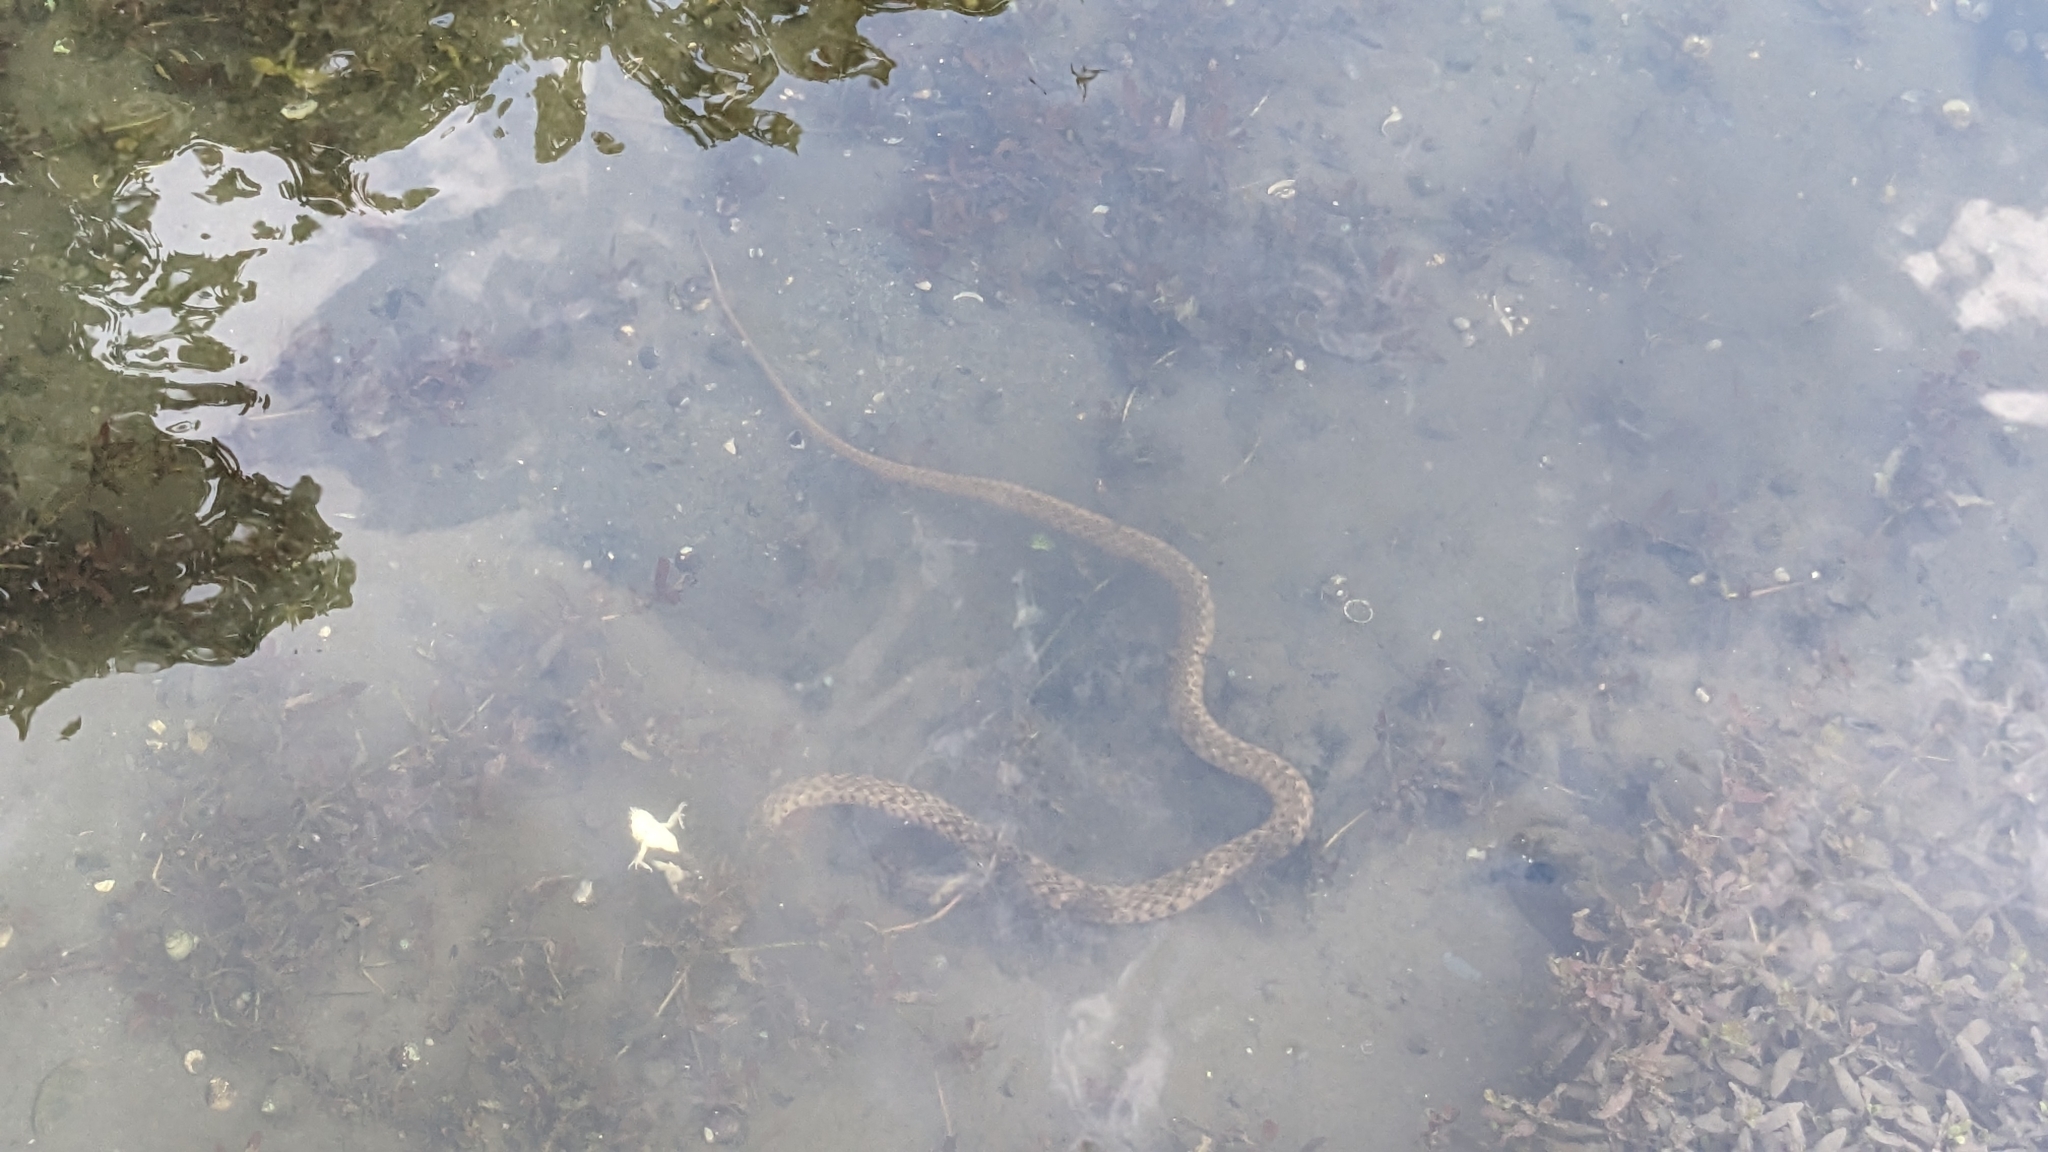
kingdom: Animalia
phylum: Chordata
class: Squamata
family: Colubridae
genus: Fowlea
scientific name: Fowlea flavipunctatus
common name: Yellow-spotted keelback
